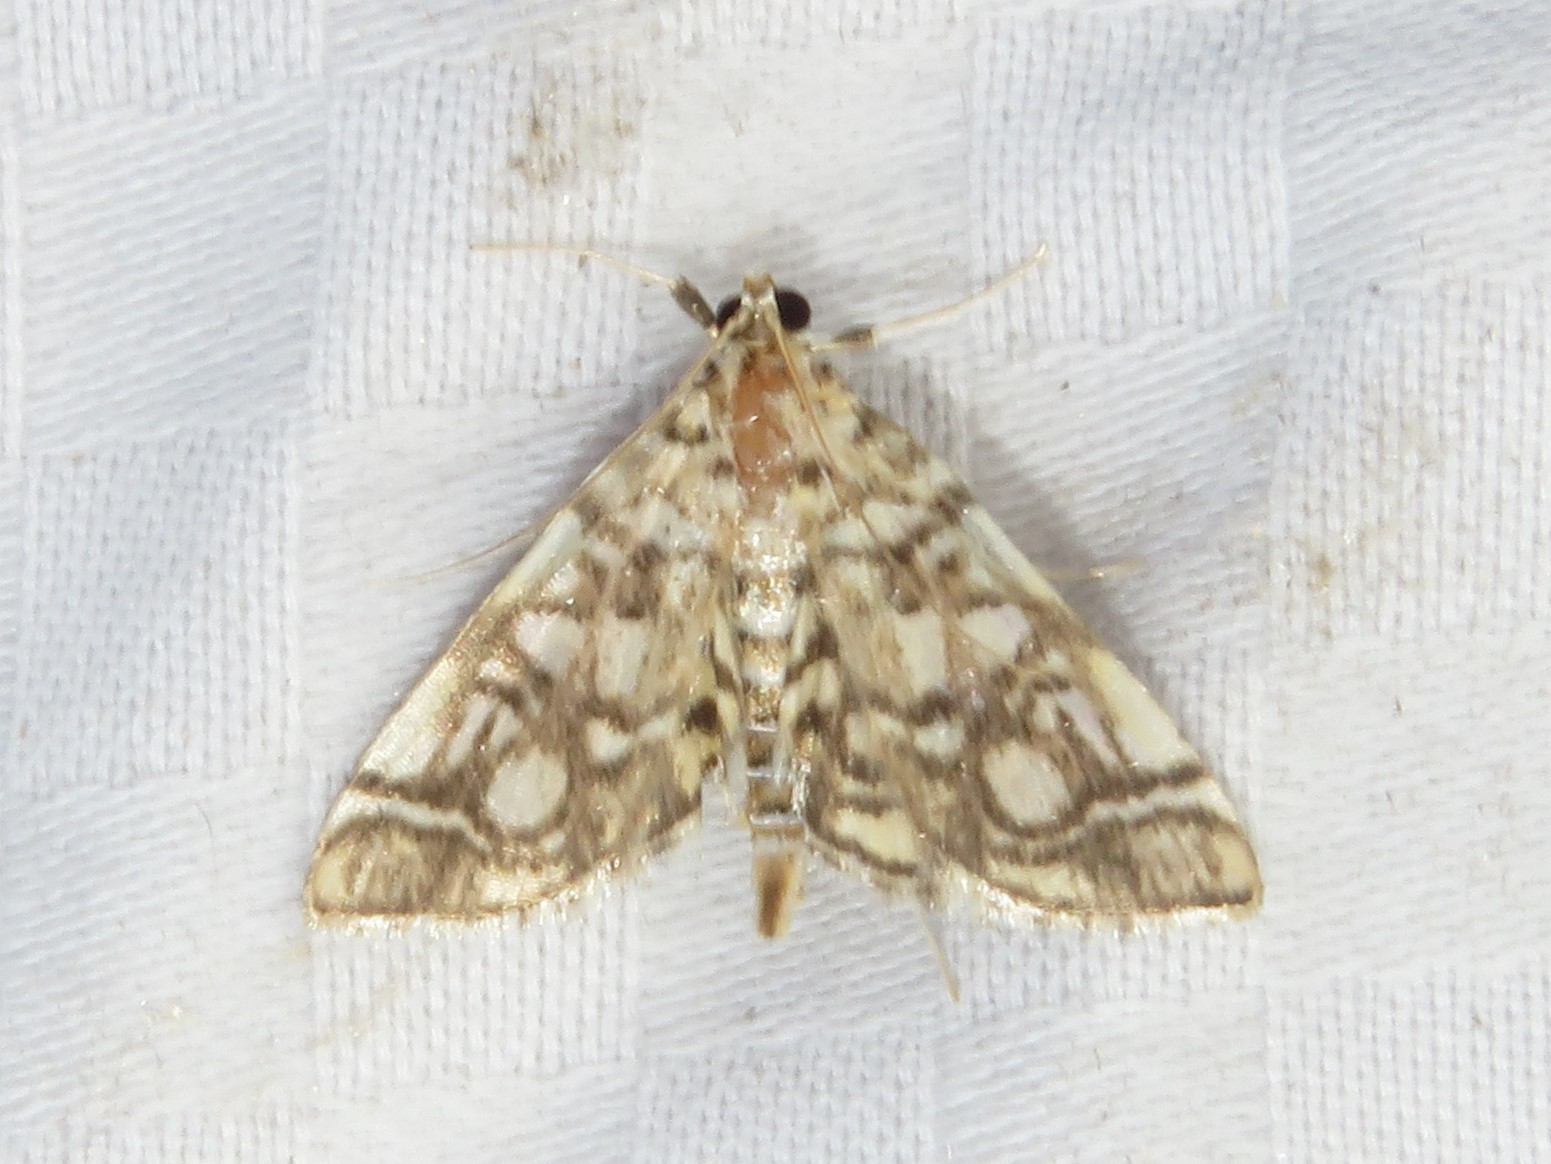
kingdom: Animalia
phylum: Arthropoda
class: Insecta
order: Lepidoptera
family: Crambidae
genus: Lygropia
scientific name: Lygropia rivulalis
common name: Bog lygropia moth
